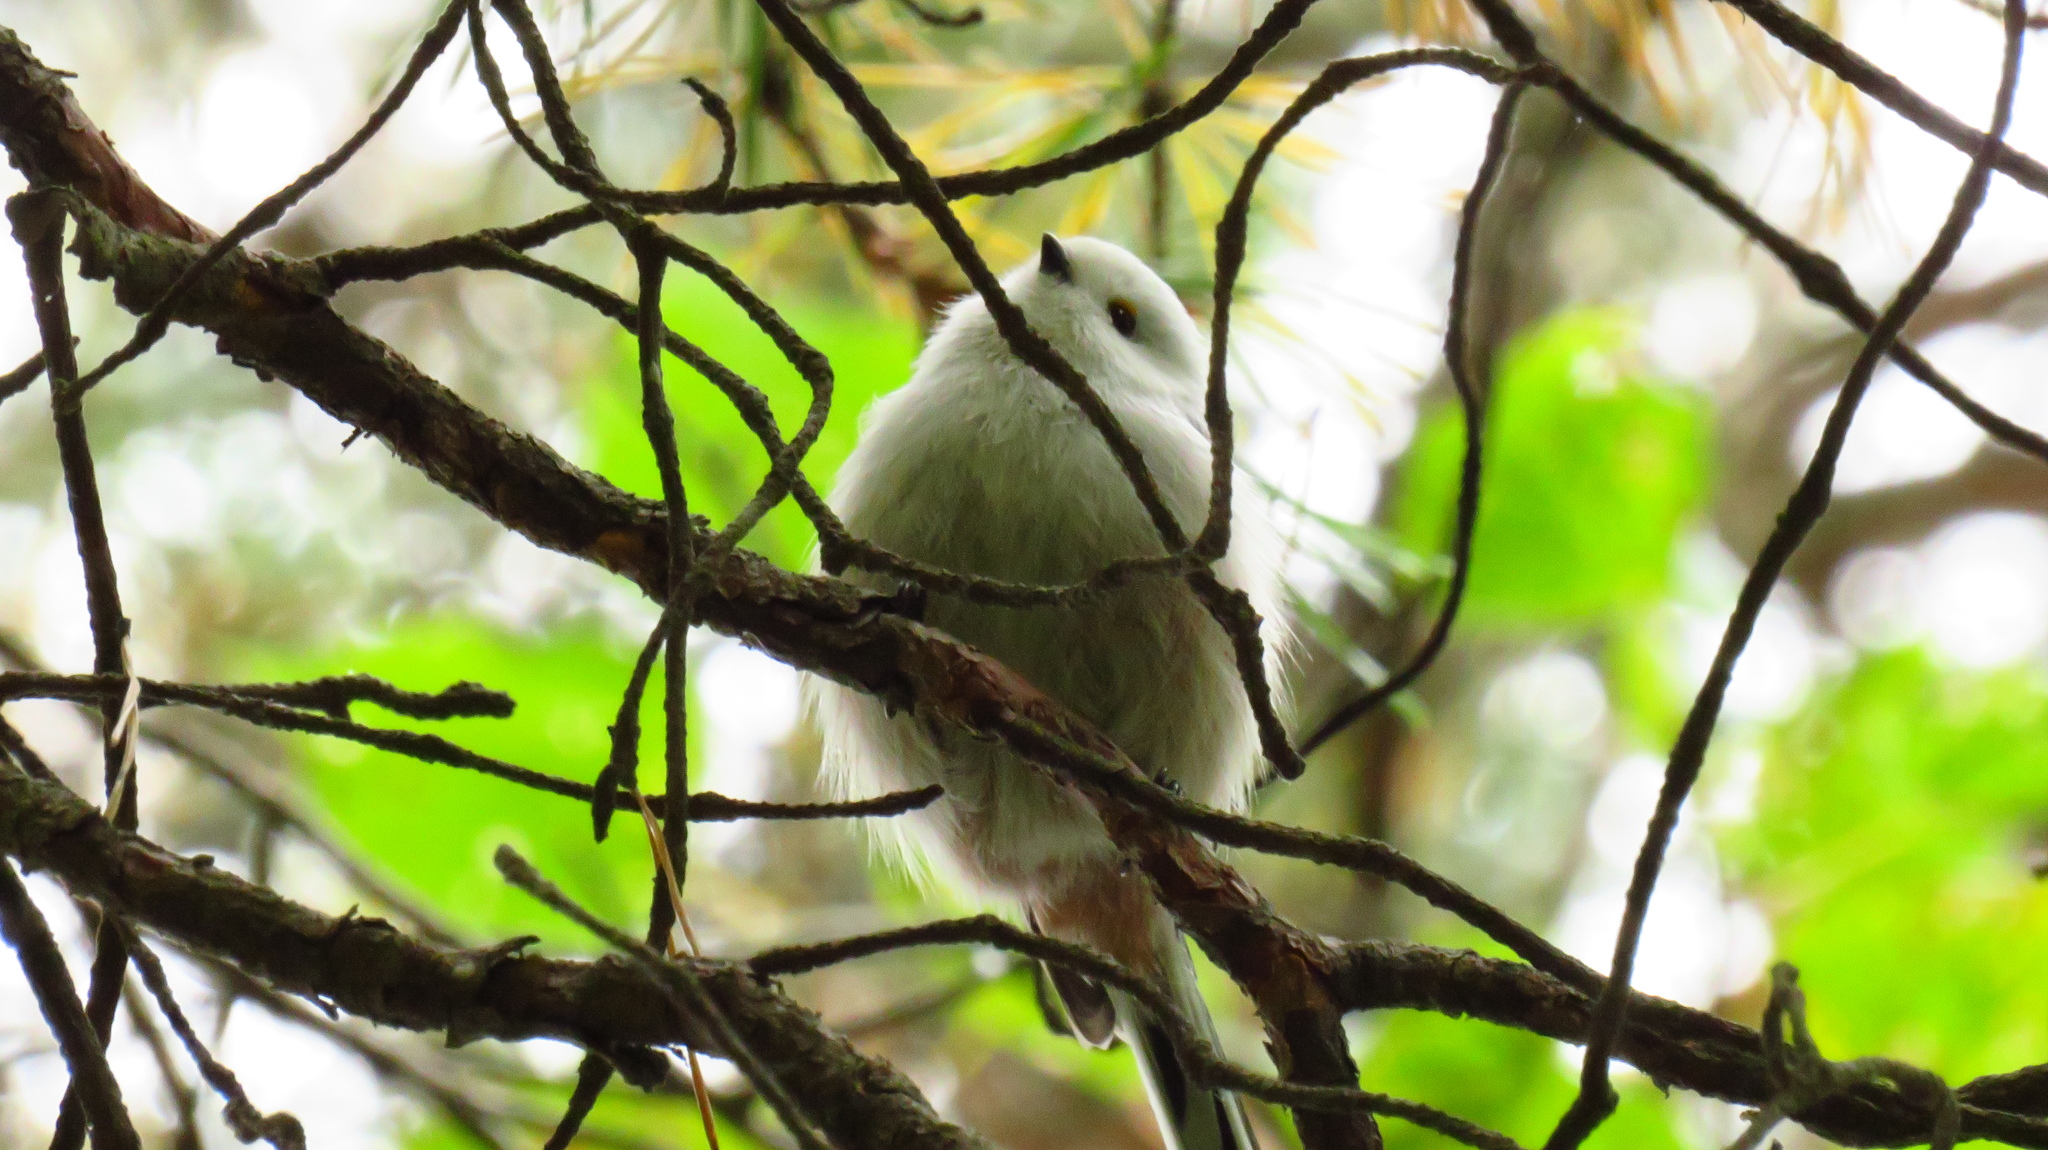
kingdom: Animalia
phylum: Chordata
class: Aves
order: Passeriformes
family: Aegithalidae
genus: Aegithalos
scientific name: Aegithalos caudatus
